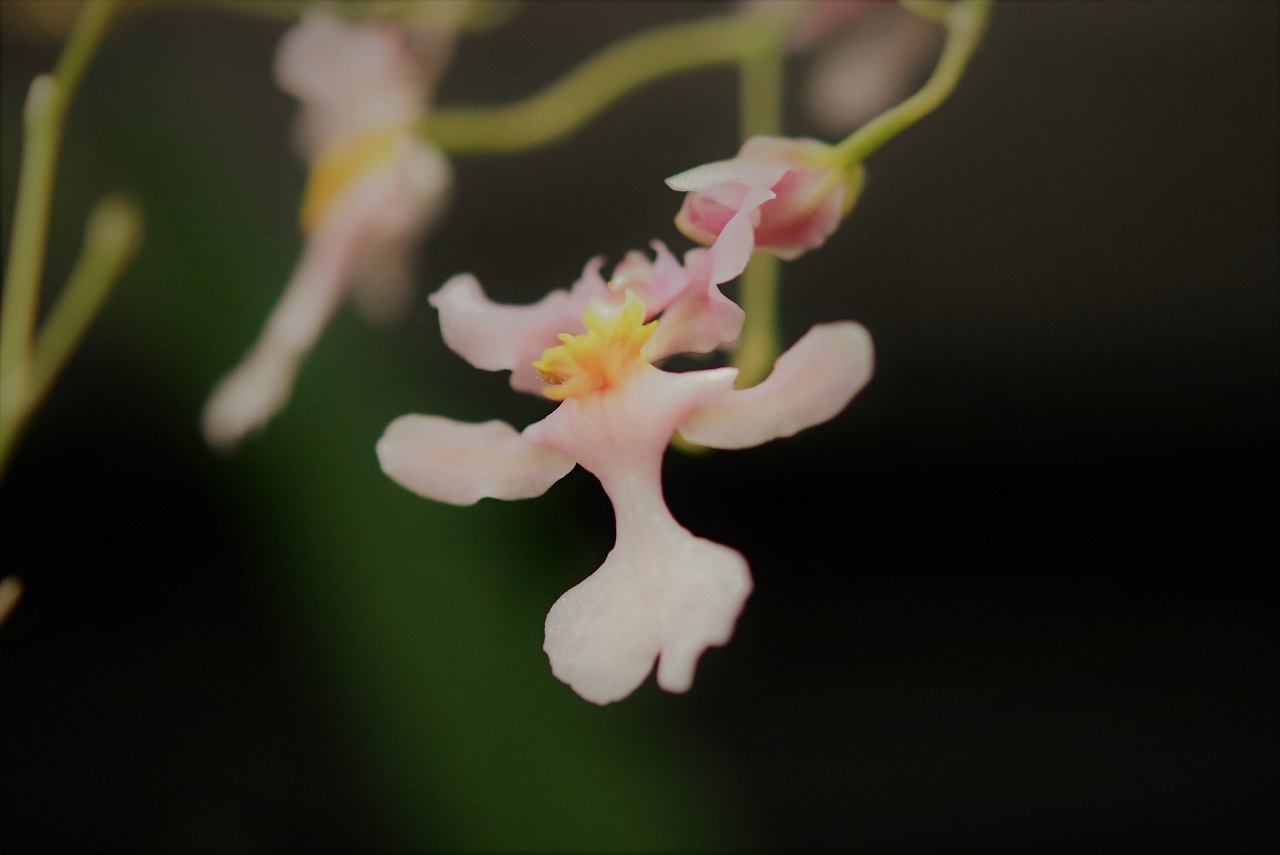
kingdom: Plantae
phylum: Tracheophyta
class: Liliopsida
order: Asparagales
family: Orchidaceae
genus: Oncidium
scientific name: Oncidium sotoanum
